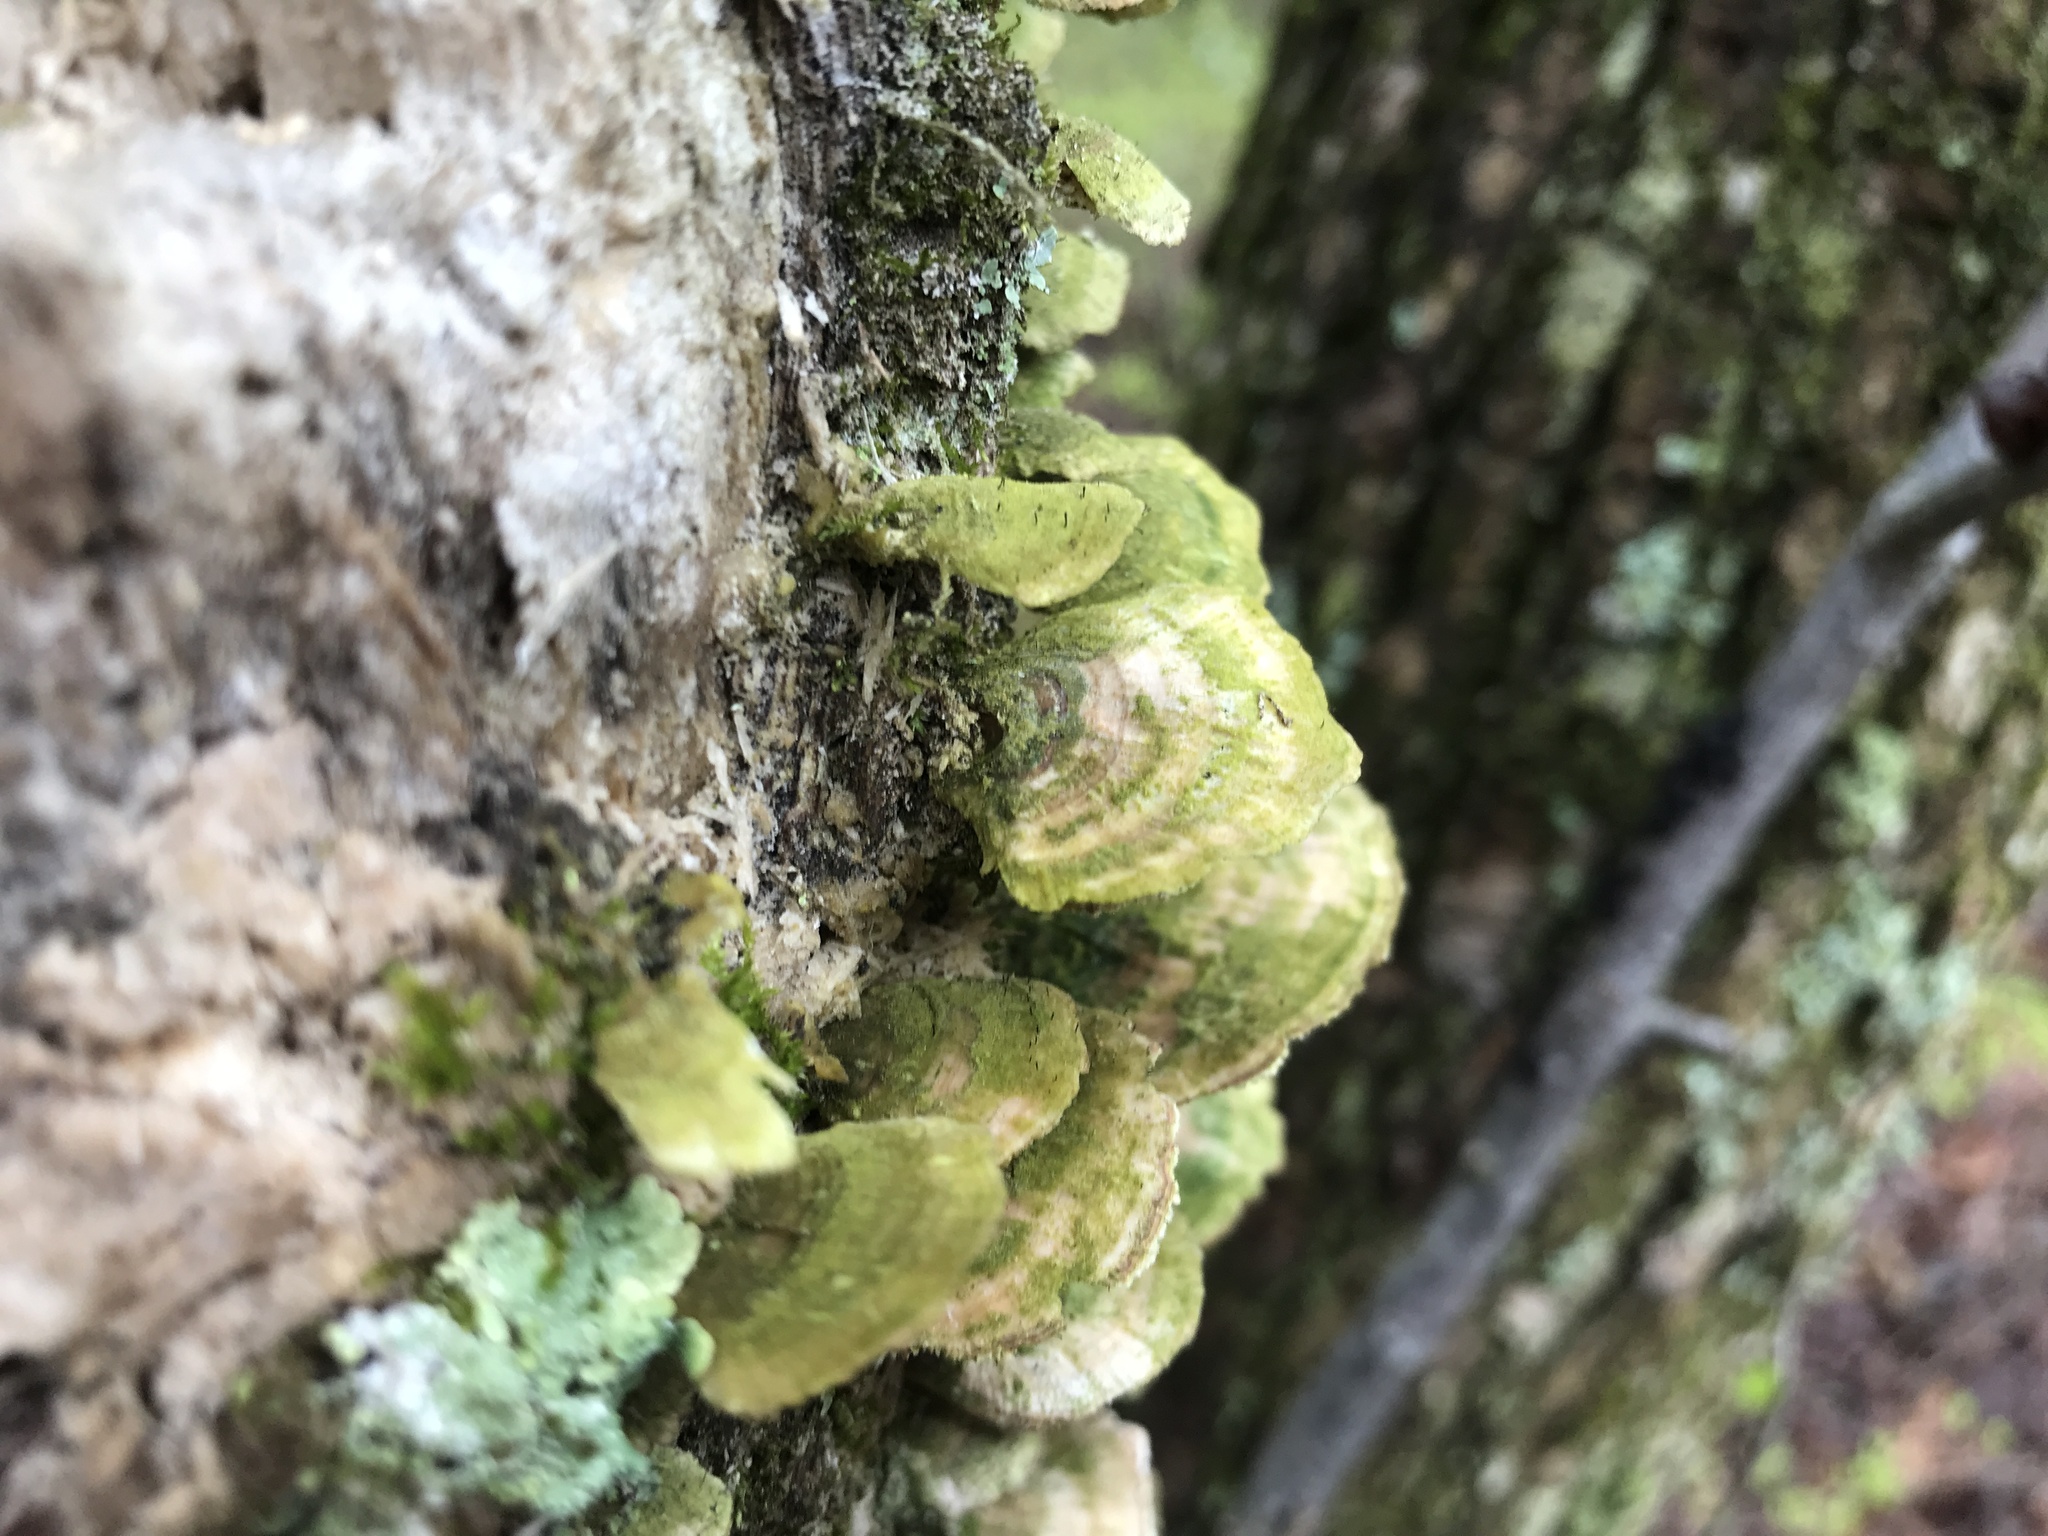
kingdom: Fungi
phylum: Basidiomycota
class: Agaricomycetes
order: Hymenochaetales
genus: Trichaptum
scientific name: Trichaptum biforme
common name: Violet-toothed polypore
